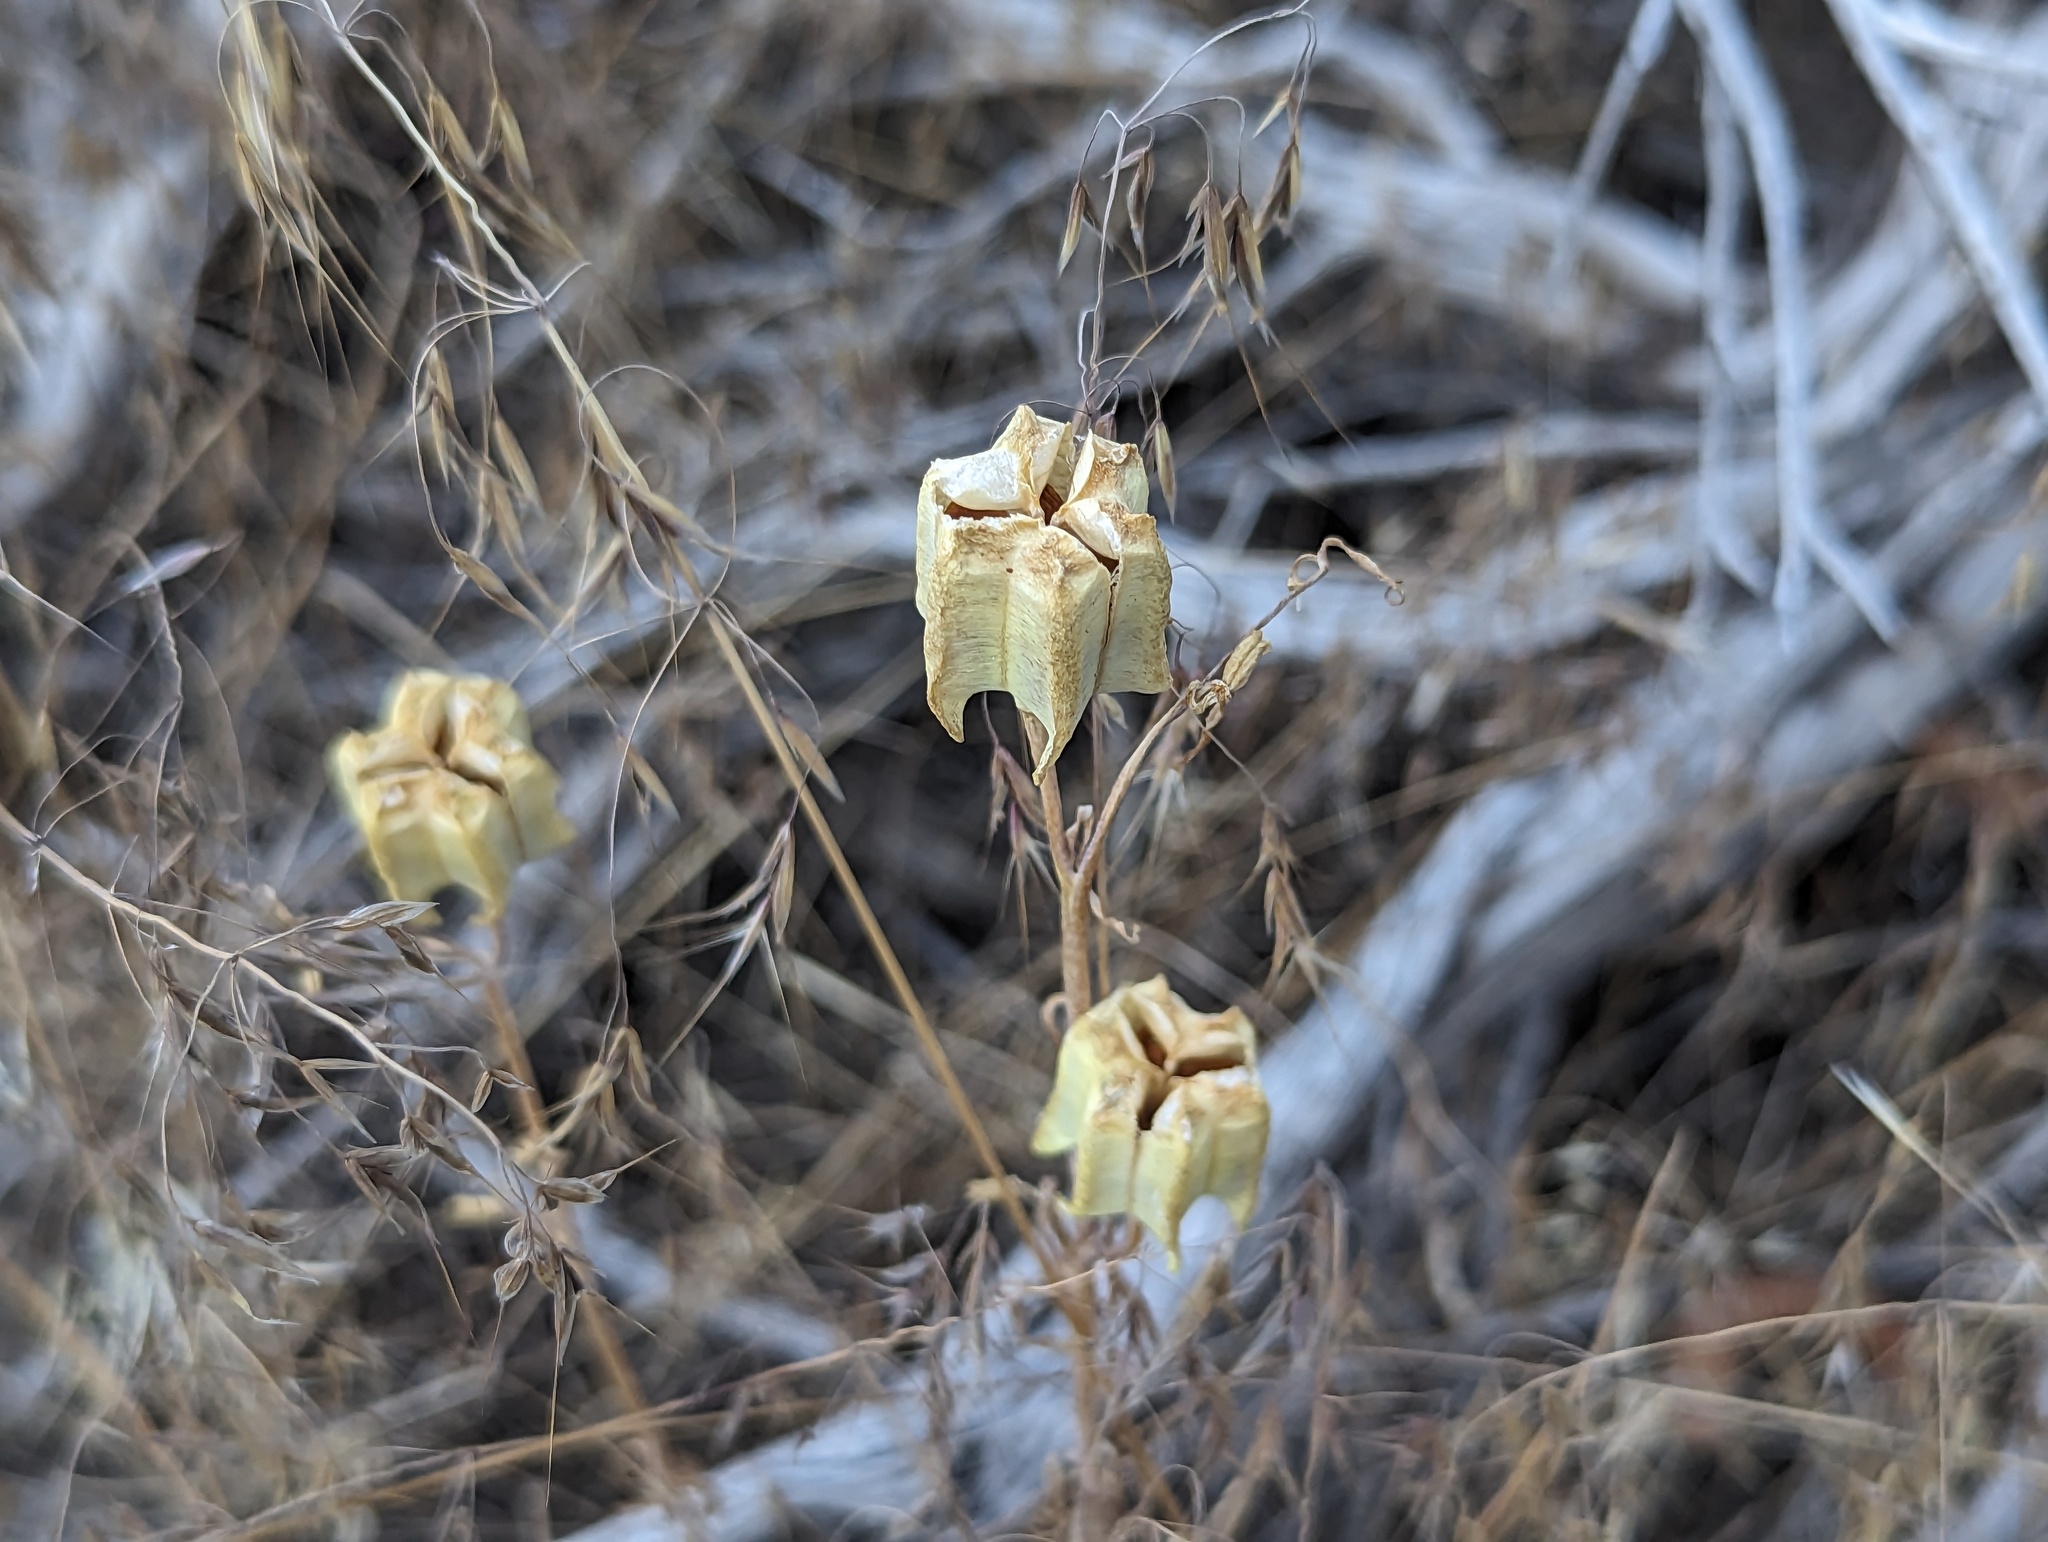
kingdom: Plantae
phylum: Tracheophyta
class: Liliopsida
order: Liliales
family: Liliaceae
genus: Fritillaria
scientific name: Fritillaria atropurpurea
